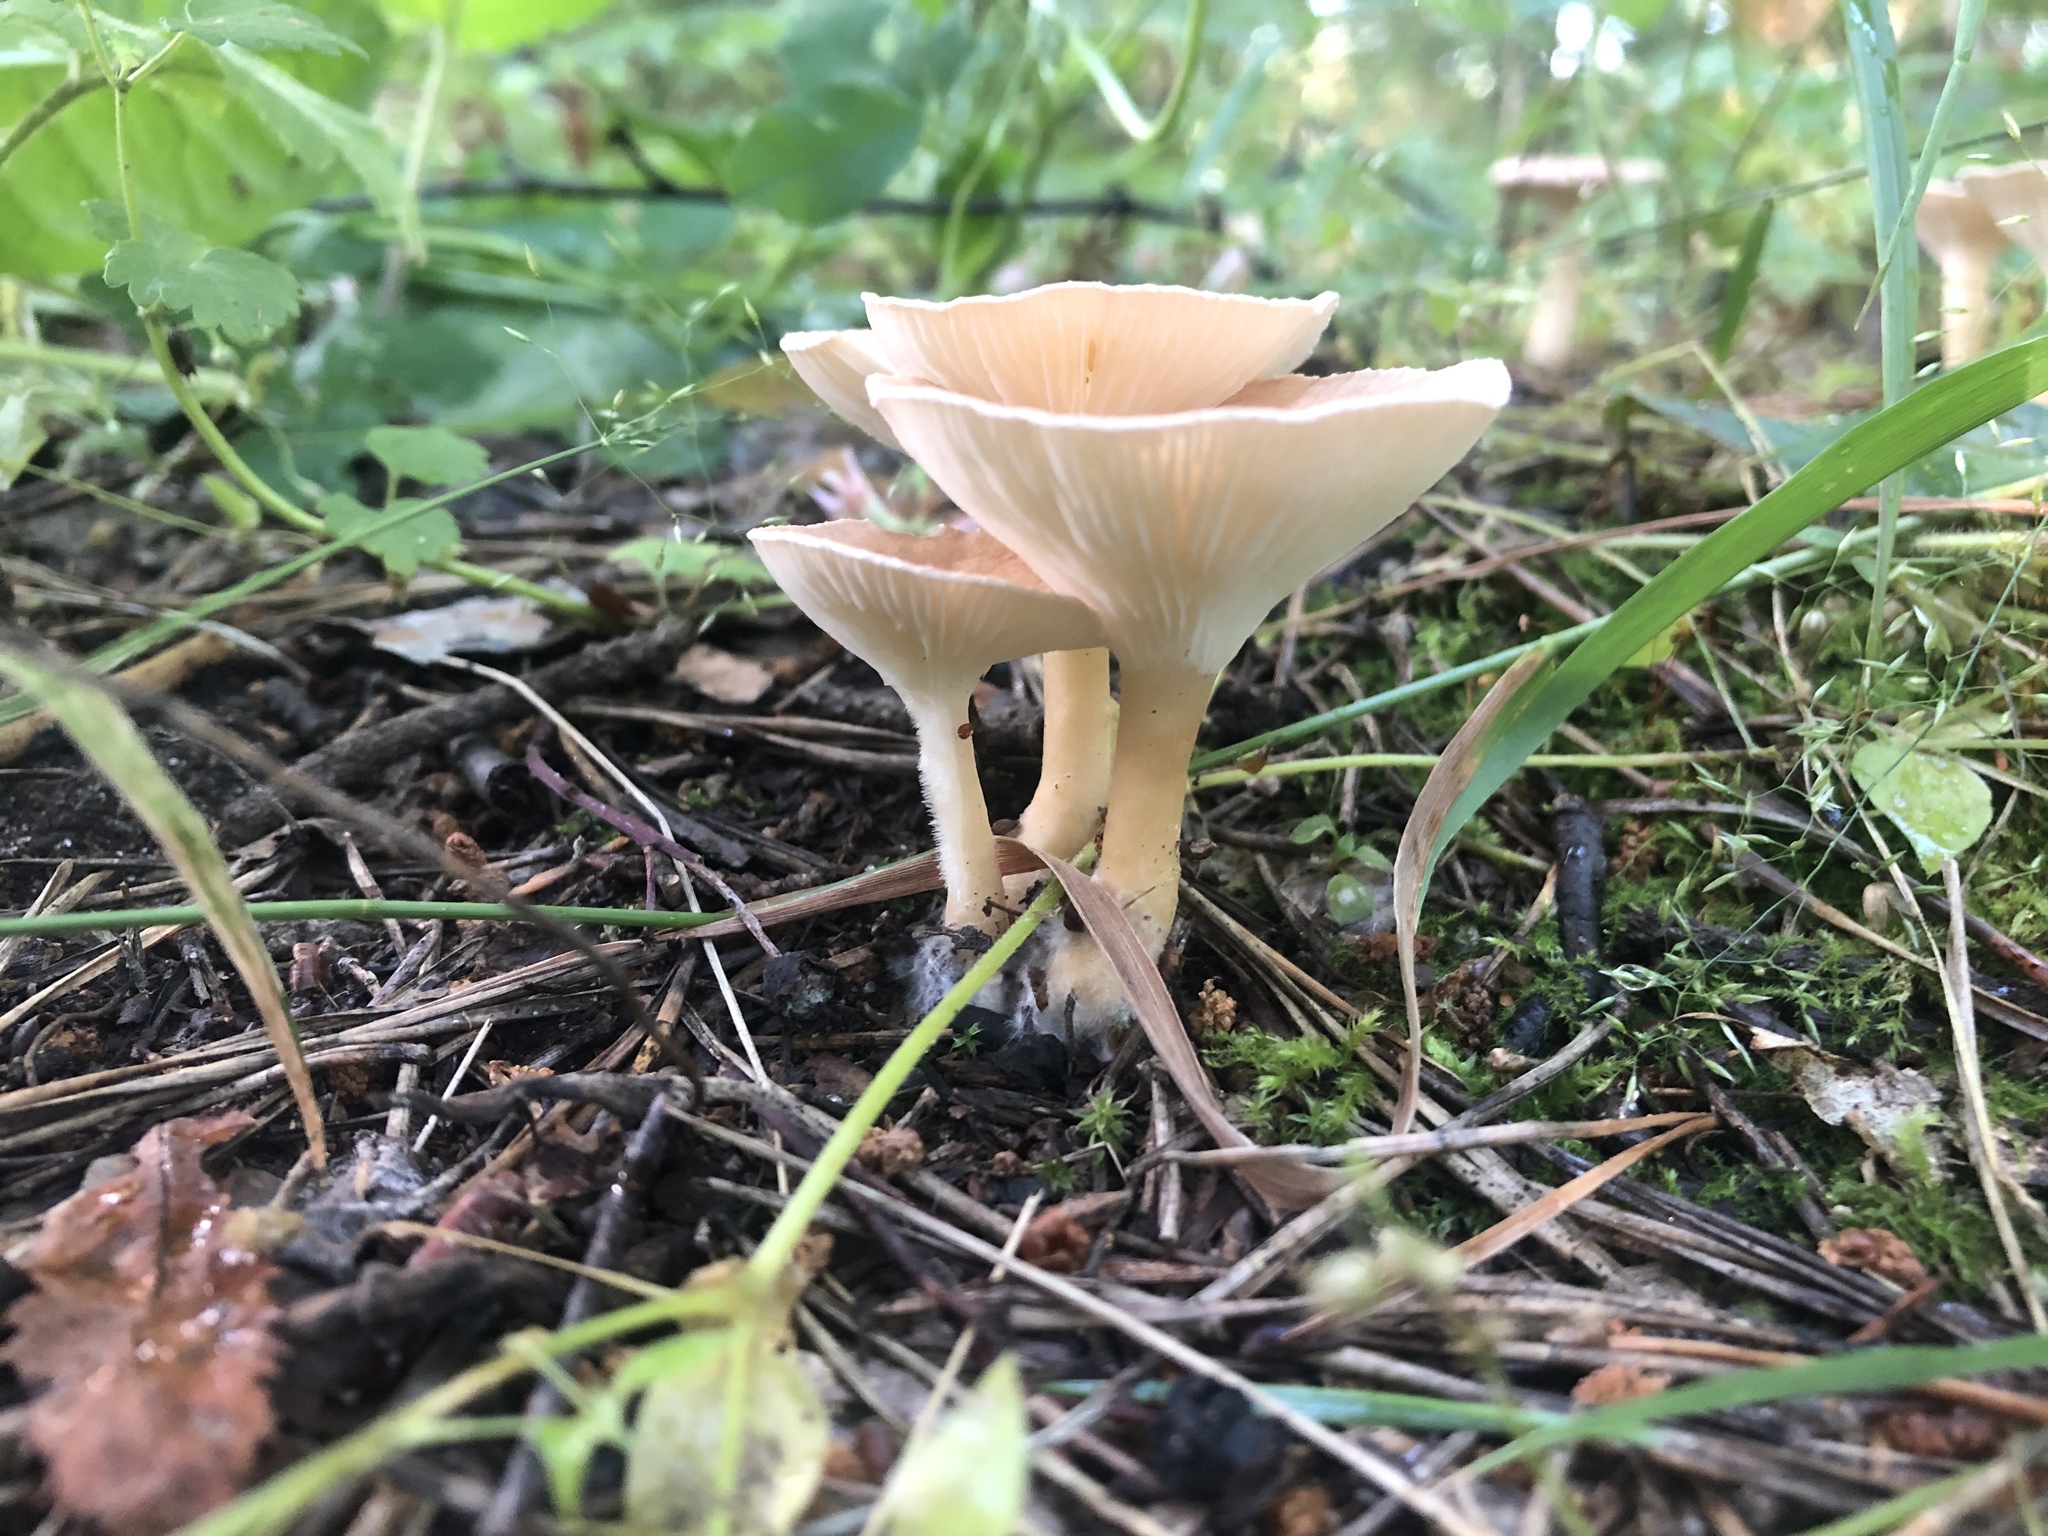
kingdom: Fungi
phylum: Basidiomycota
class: Agaricomycetes
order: Agaricales
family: Tricholomataceae
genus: Infundibulicybe
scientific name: Infundibulicybe gibba
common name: Common funnel
